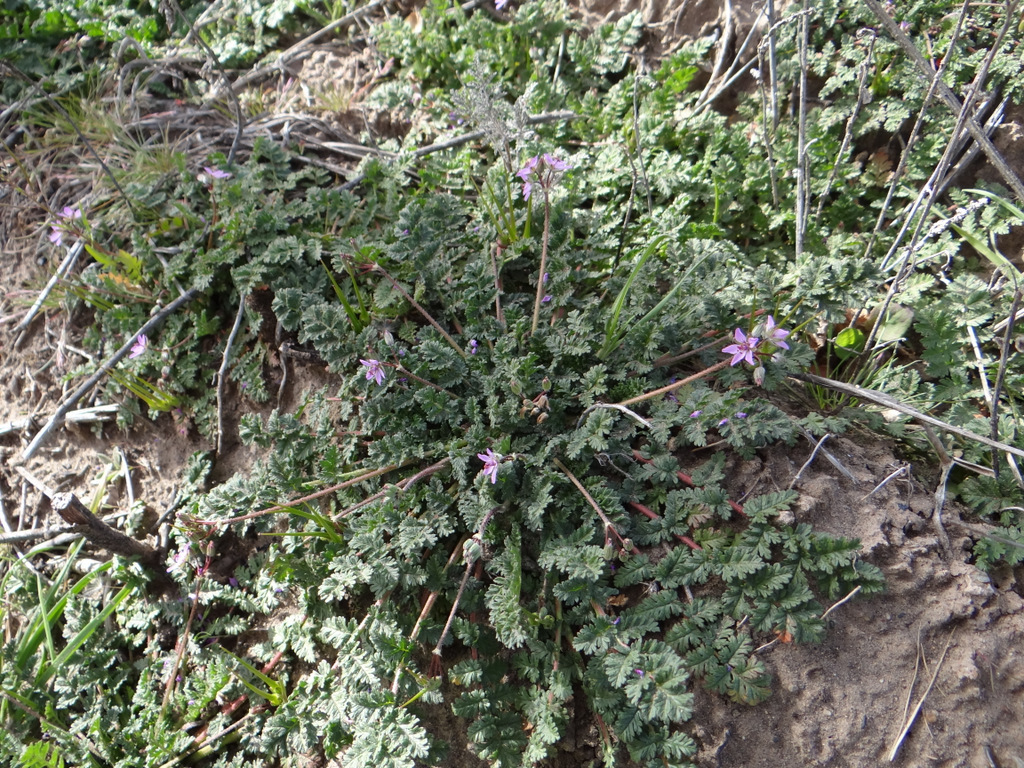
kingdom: Plantae
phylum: Tracheophyta
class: Magnoliopsida
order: Geraniales
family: Geraniaceae
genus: Erodium
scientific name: Erodium cicutarium
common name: Common stork's-bill
